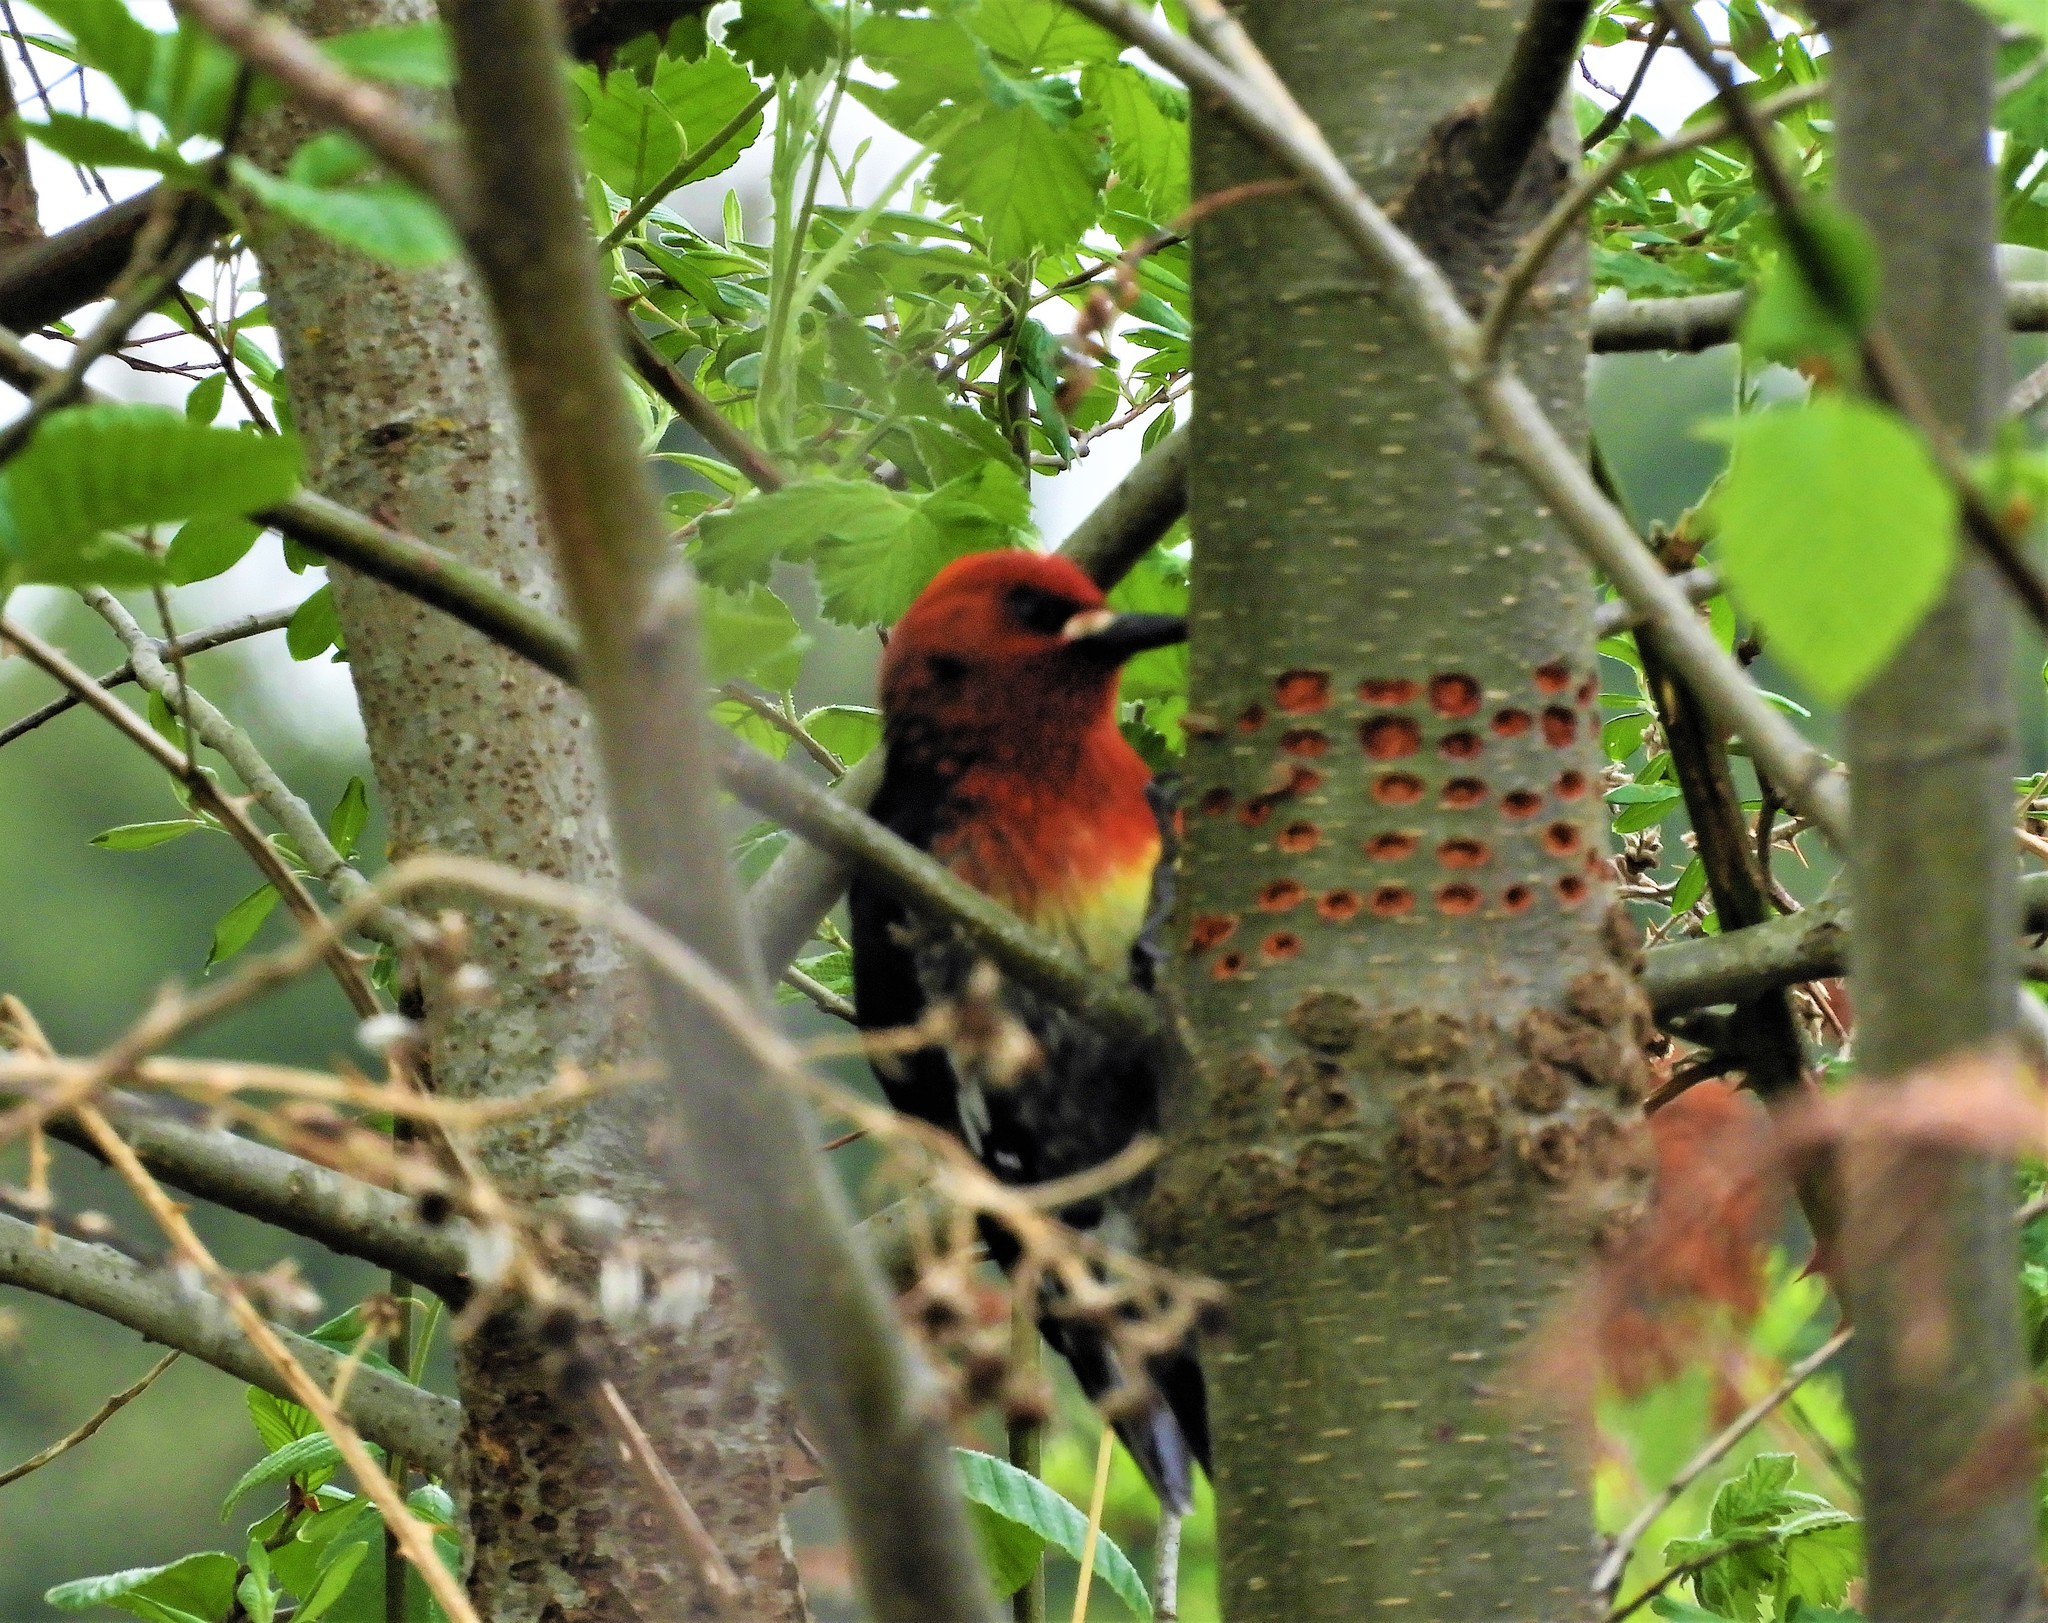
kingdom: Animalia
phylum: Chordata
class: Aves
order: Piciformes
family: Picidae
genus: Sphyrapicus
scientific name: Sphyrapicus ruber
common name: Red-breasted sapsucker
